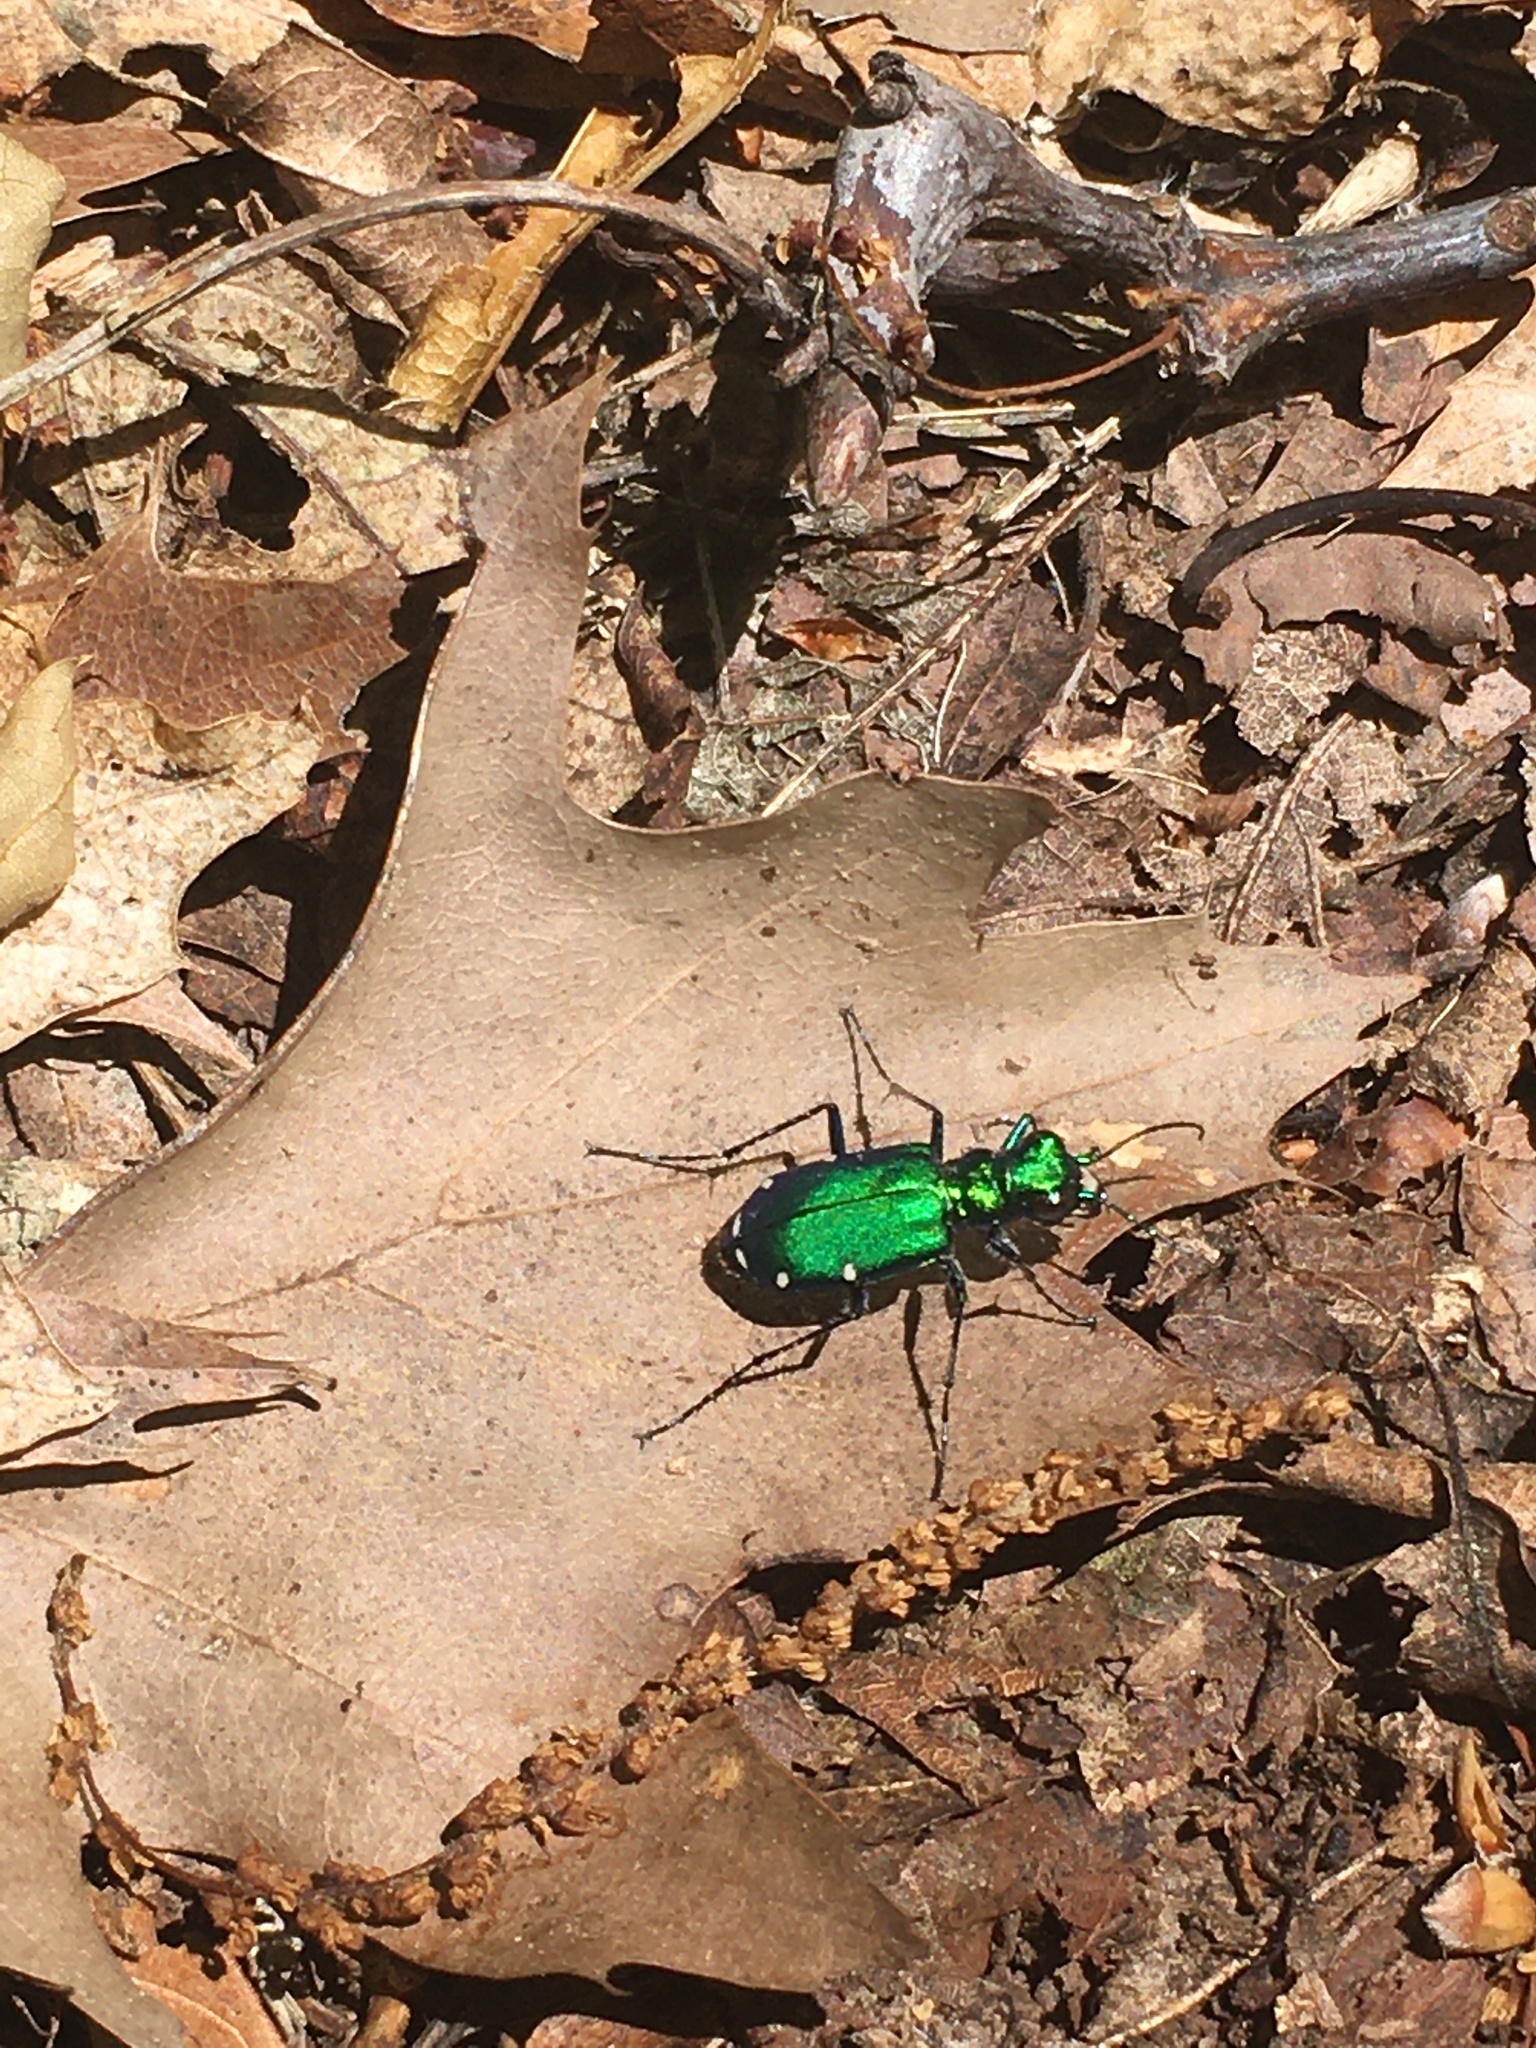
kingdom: Animalia
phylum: Arthropoda
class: Insecta
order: Coleoptera
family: Carabidae
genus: Cicindela
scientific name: Cicindela sexguttata
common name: Six-spotted tiger beetle
